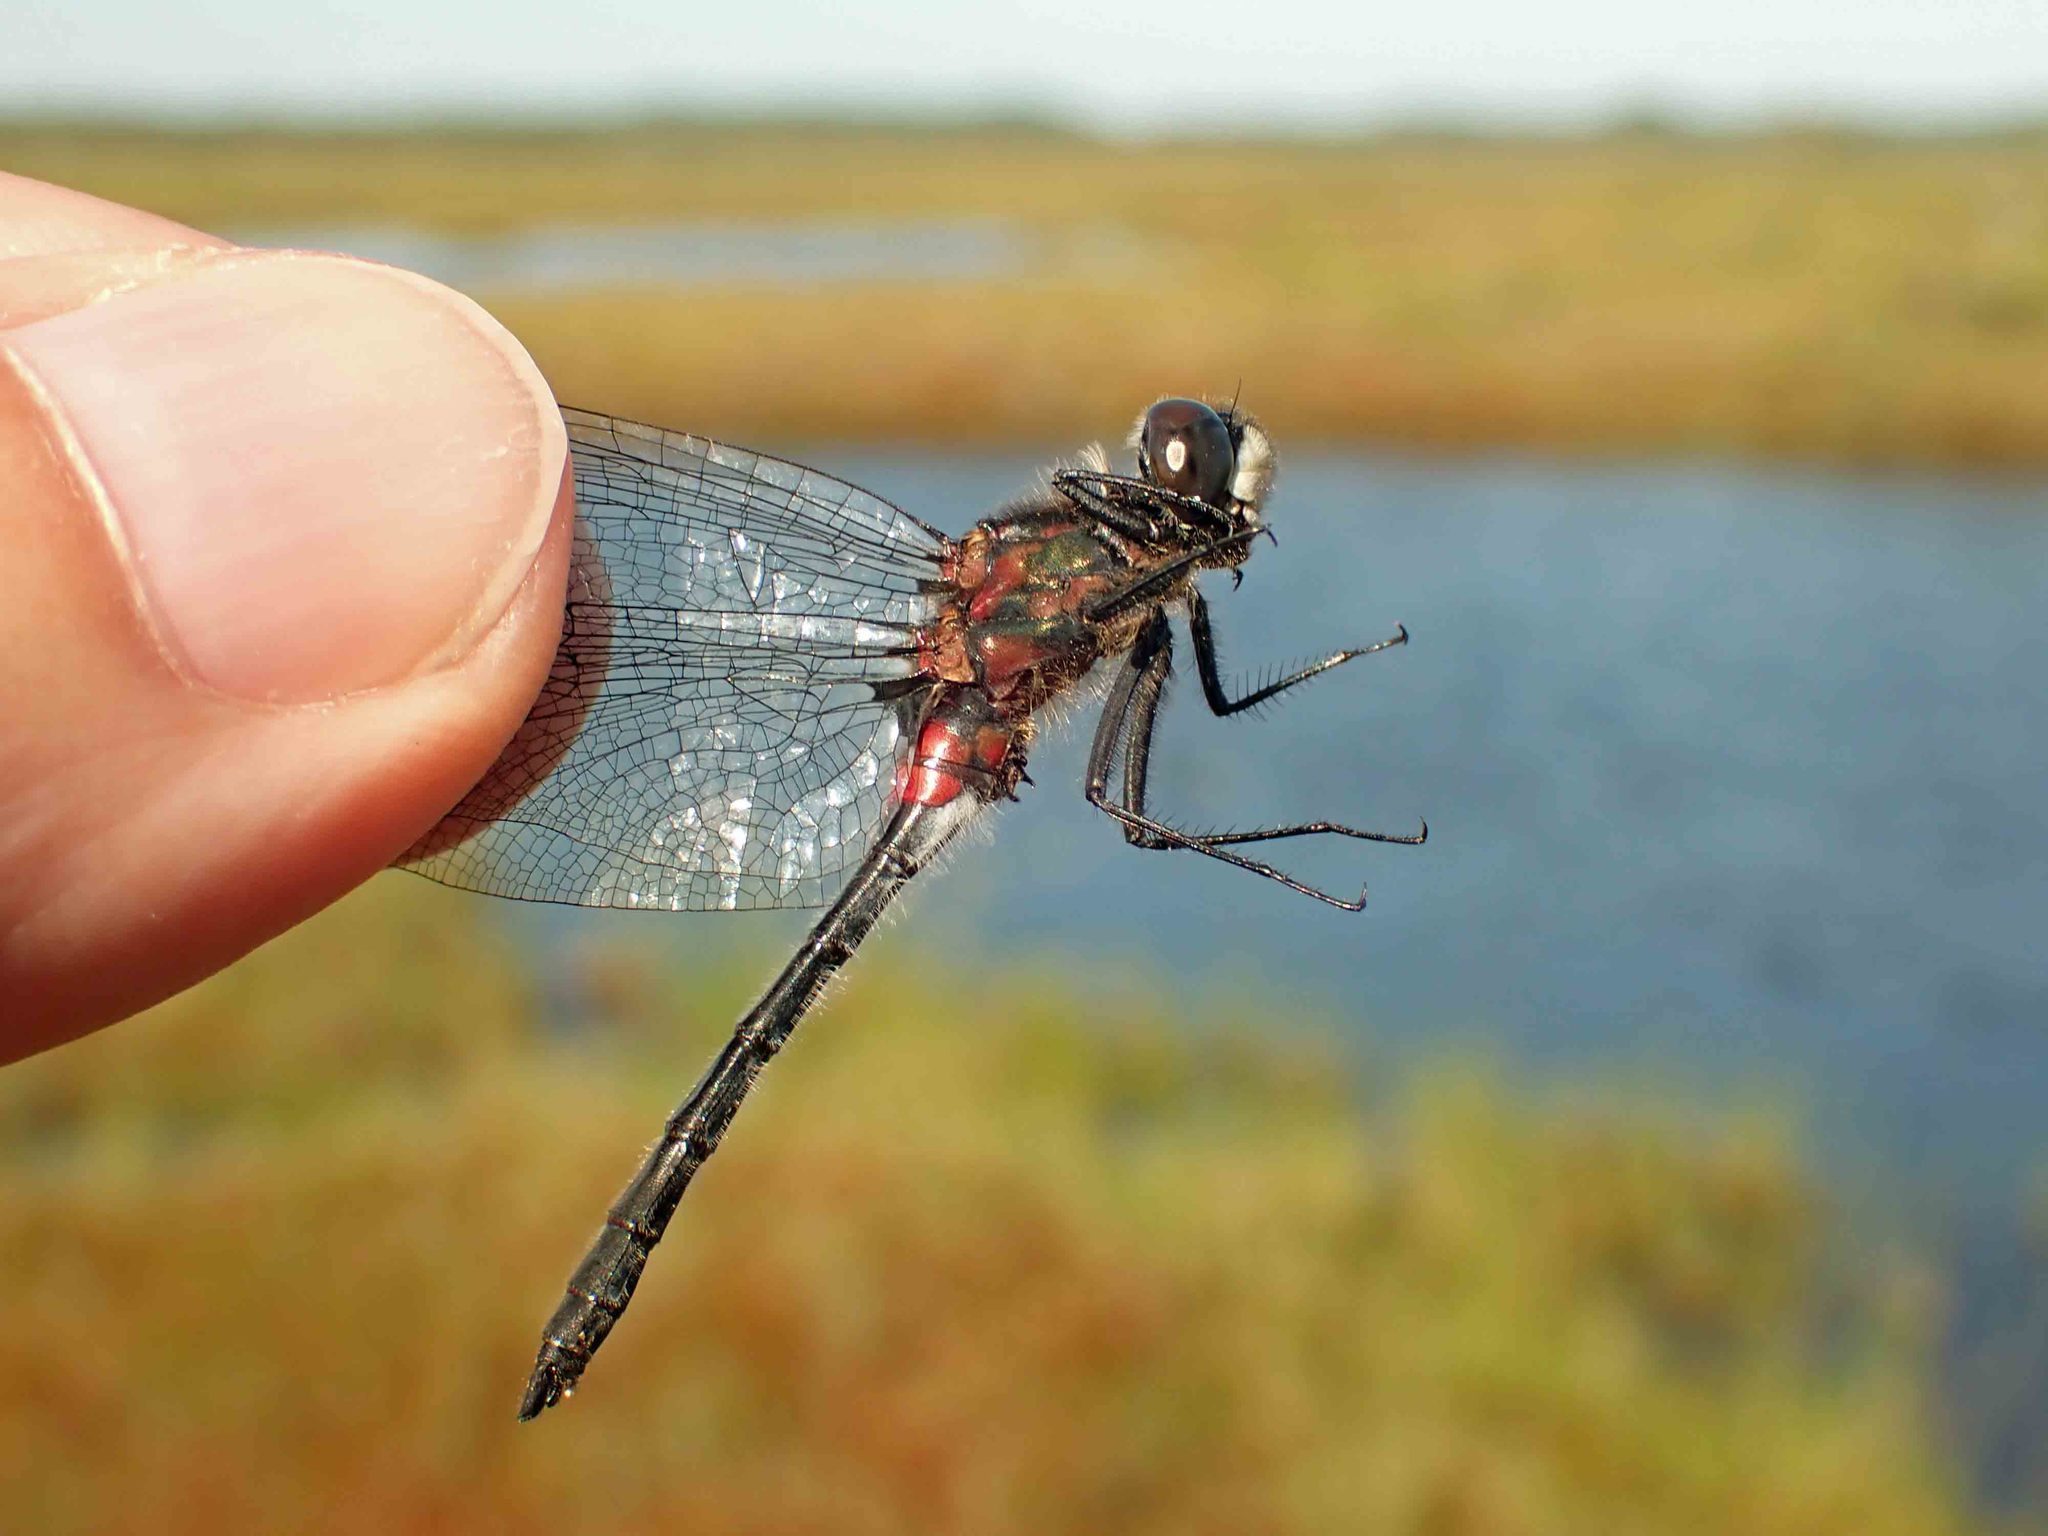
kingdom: Animalia
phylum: Arthropoda
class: Insecta
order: Odonata
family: Libellulidae
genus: Leucorrhinia
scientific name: Leucorrhinia glacialis
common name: Crimson-ringed whiteface
